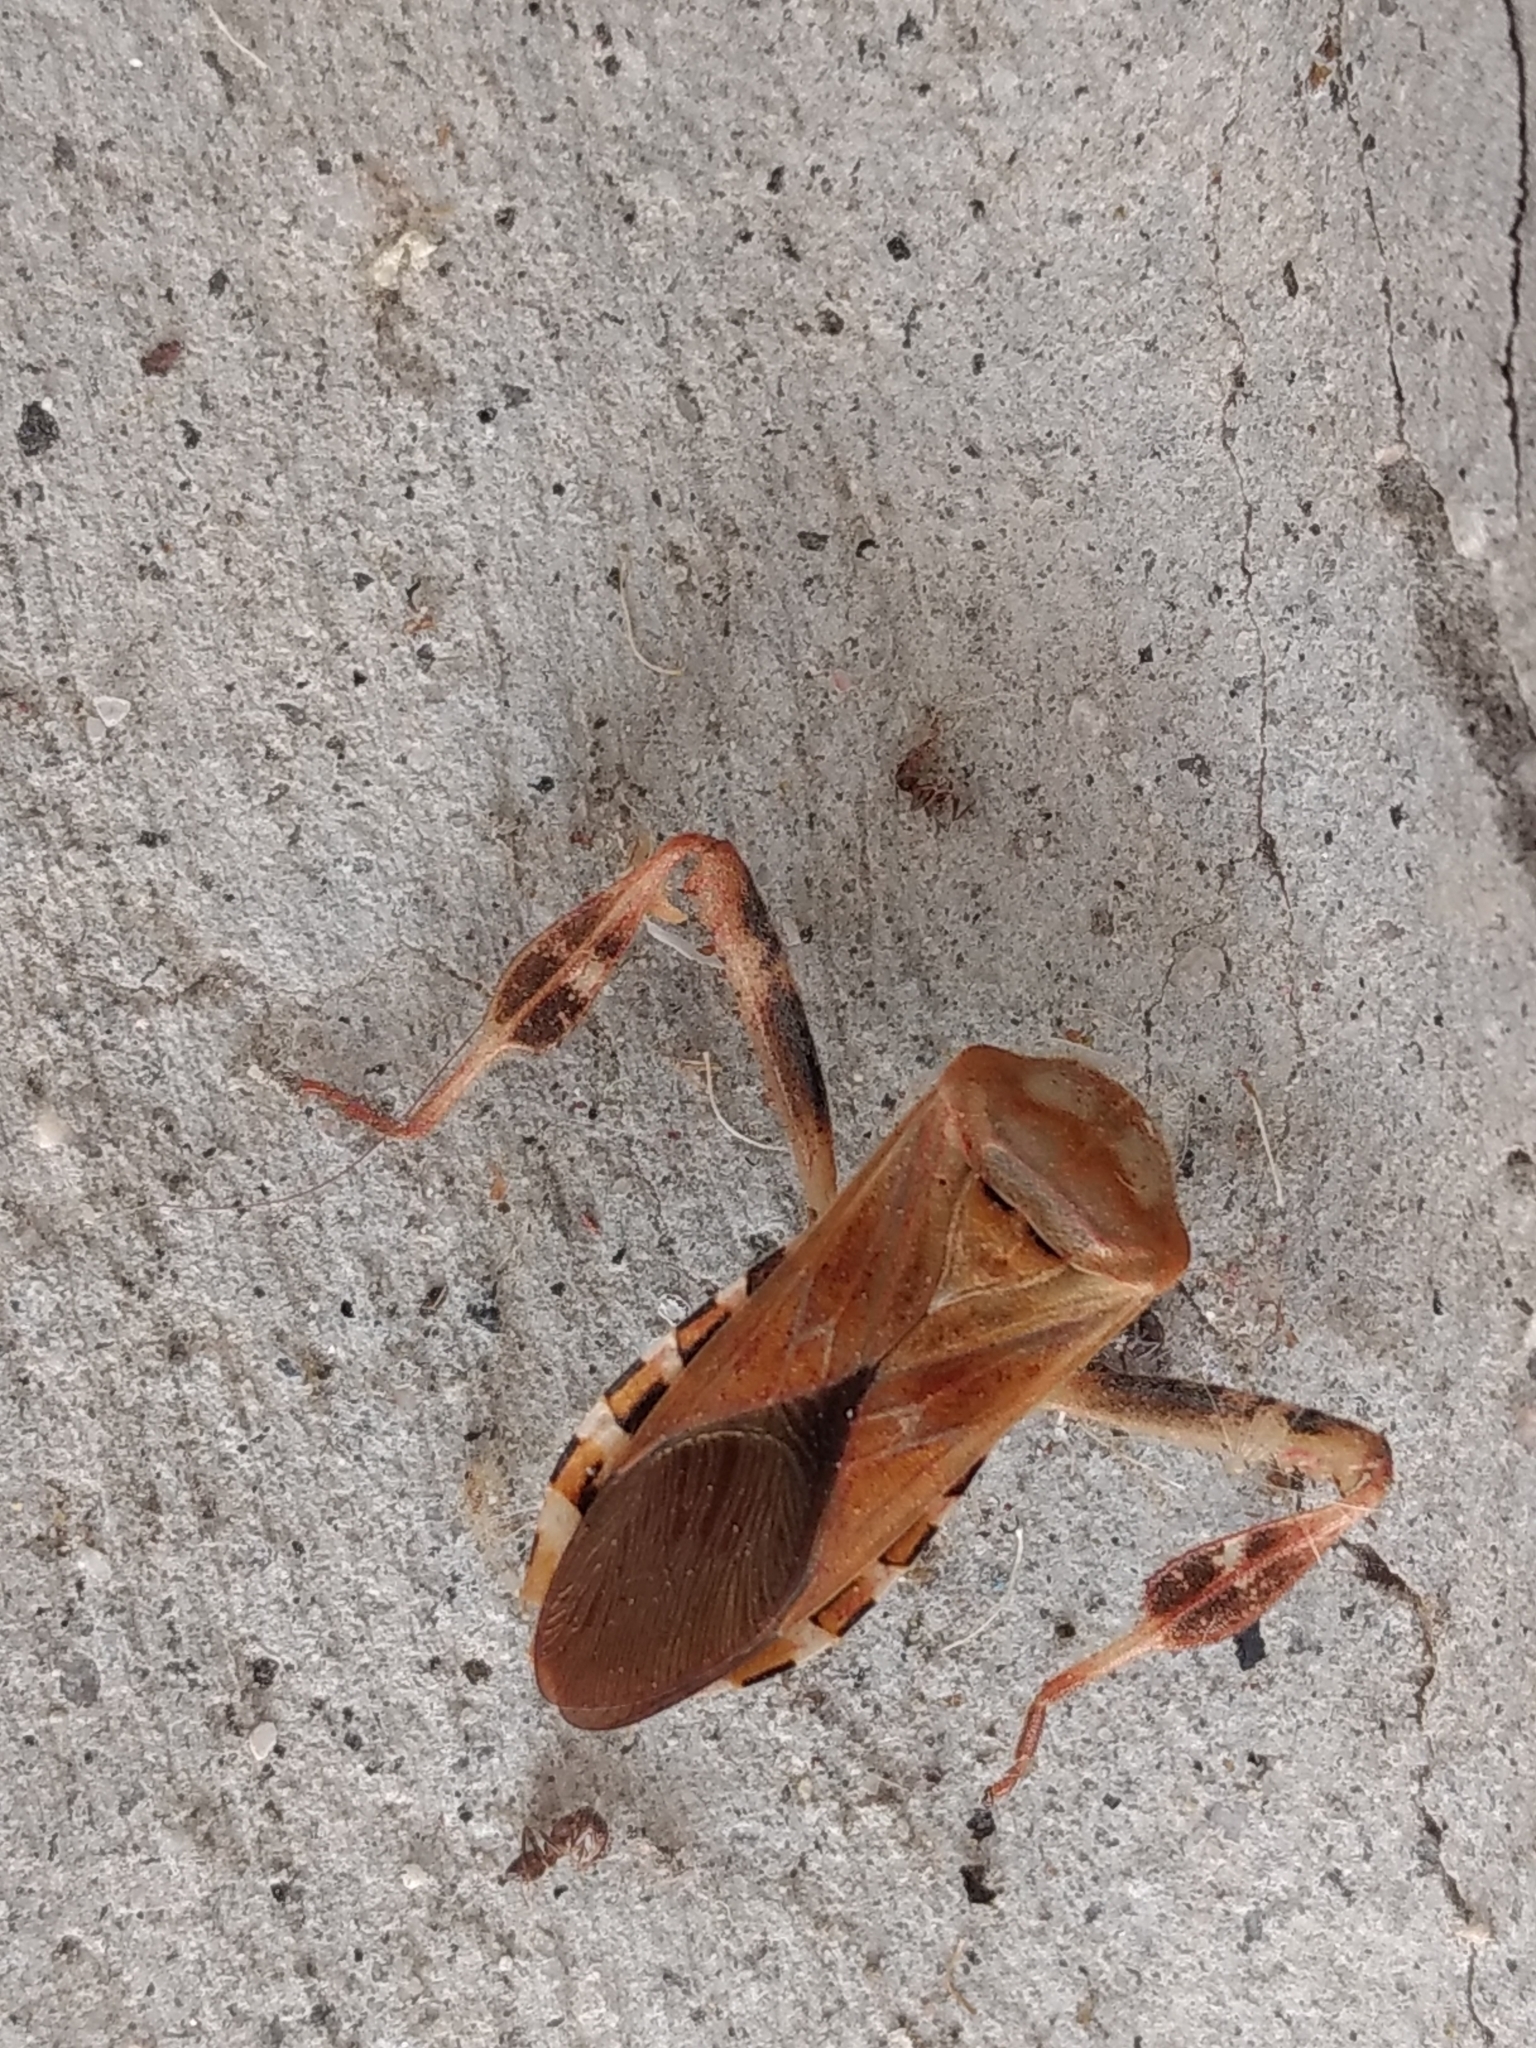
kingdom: Animalia
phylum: Arthropoda
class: Insecta
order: Hemiptera
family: Coreidae
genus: Leptoglossus
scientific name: Leptoglossus occidentalis
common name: Western conifer-seed bug
